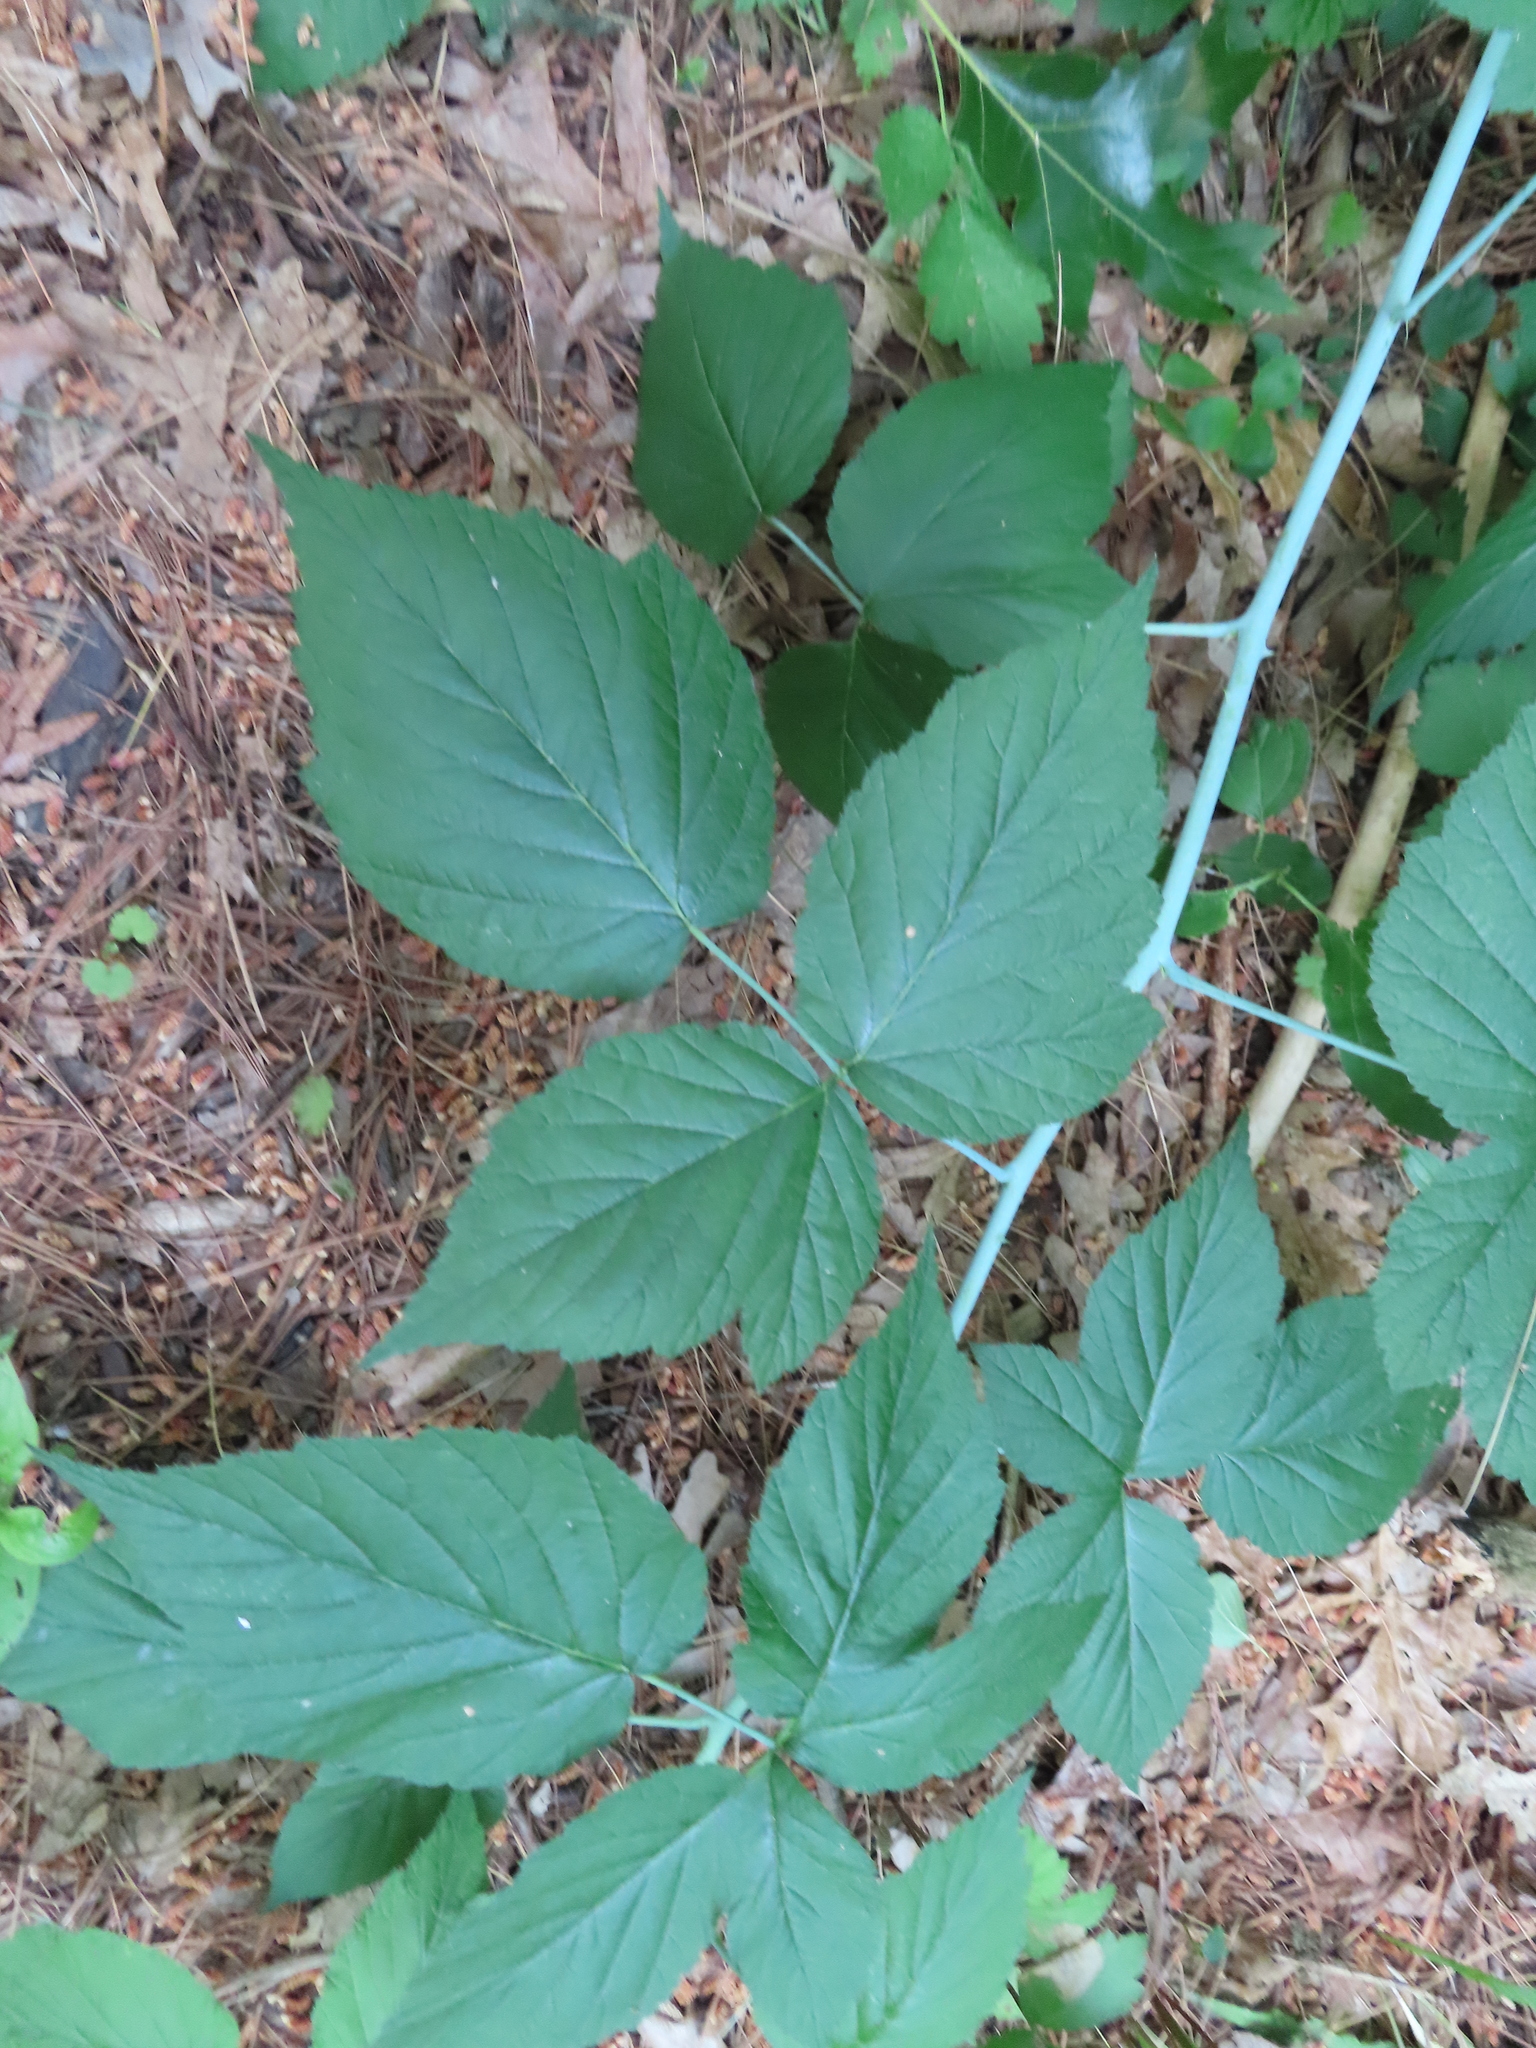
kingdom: Plantae
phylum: Tracheophyta
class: Magnoliopsida
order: Rosales
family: Rosaceae
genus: Rubus
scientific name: Rubus occidentalis
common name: Black raspberry
